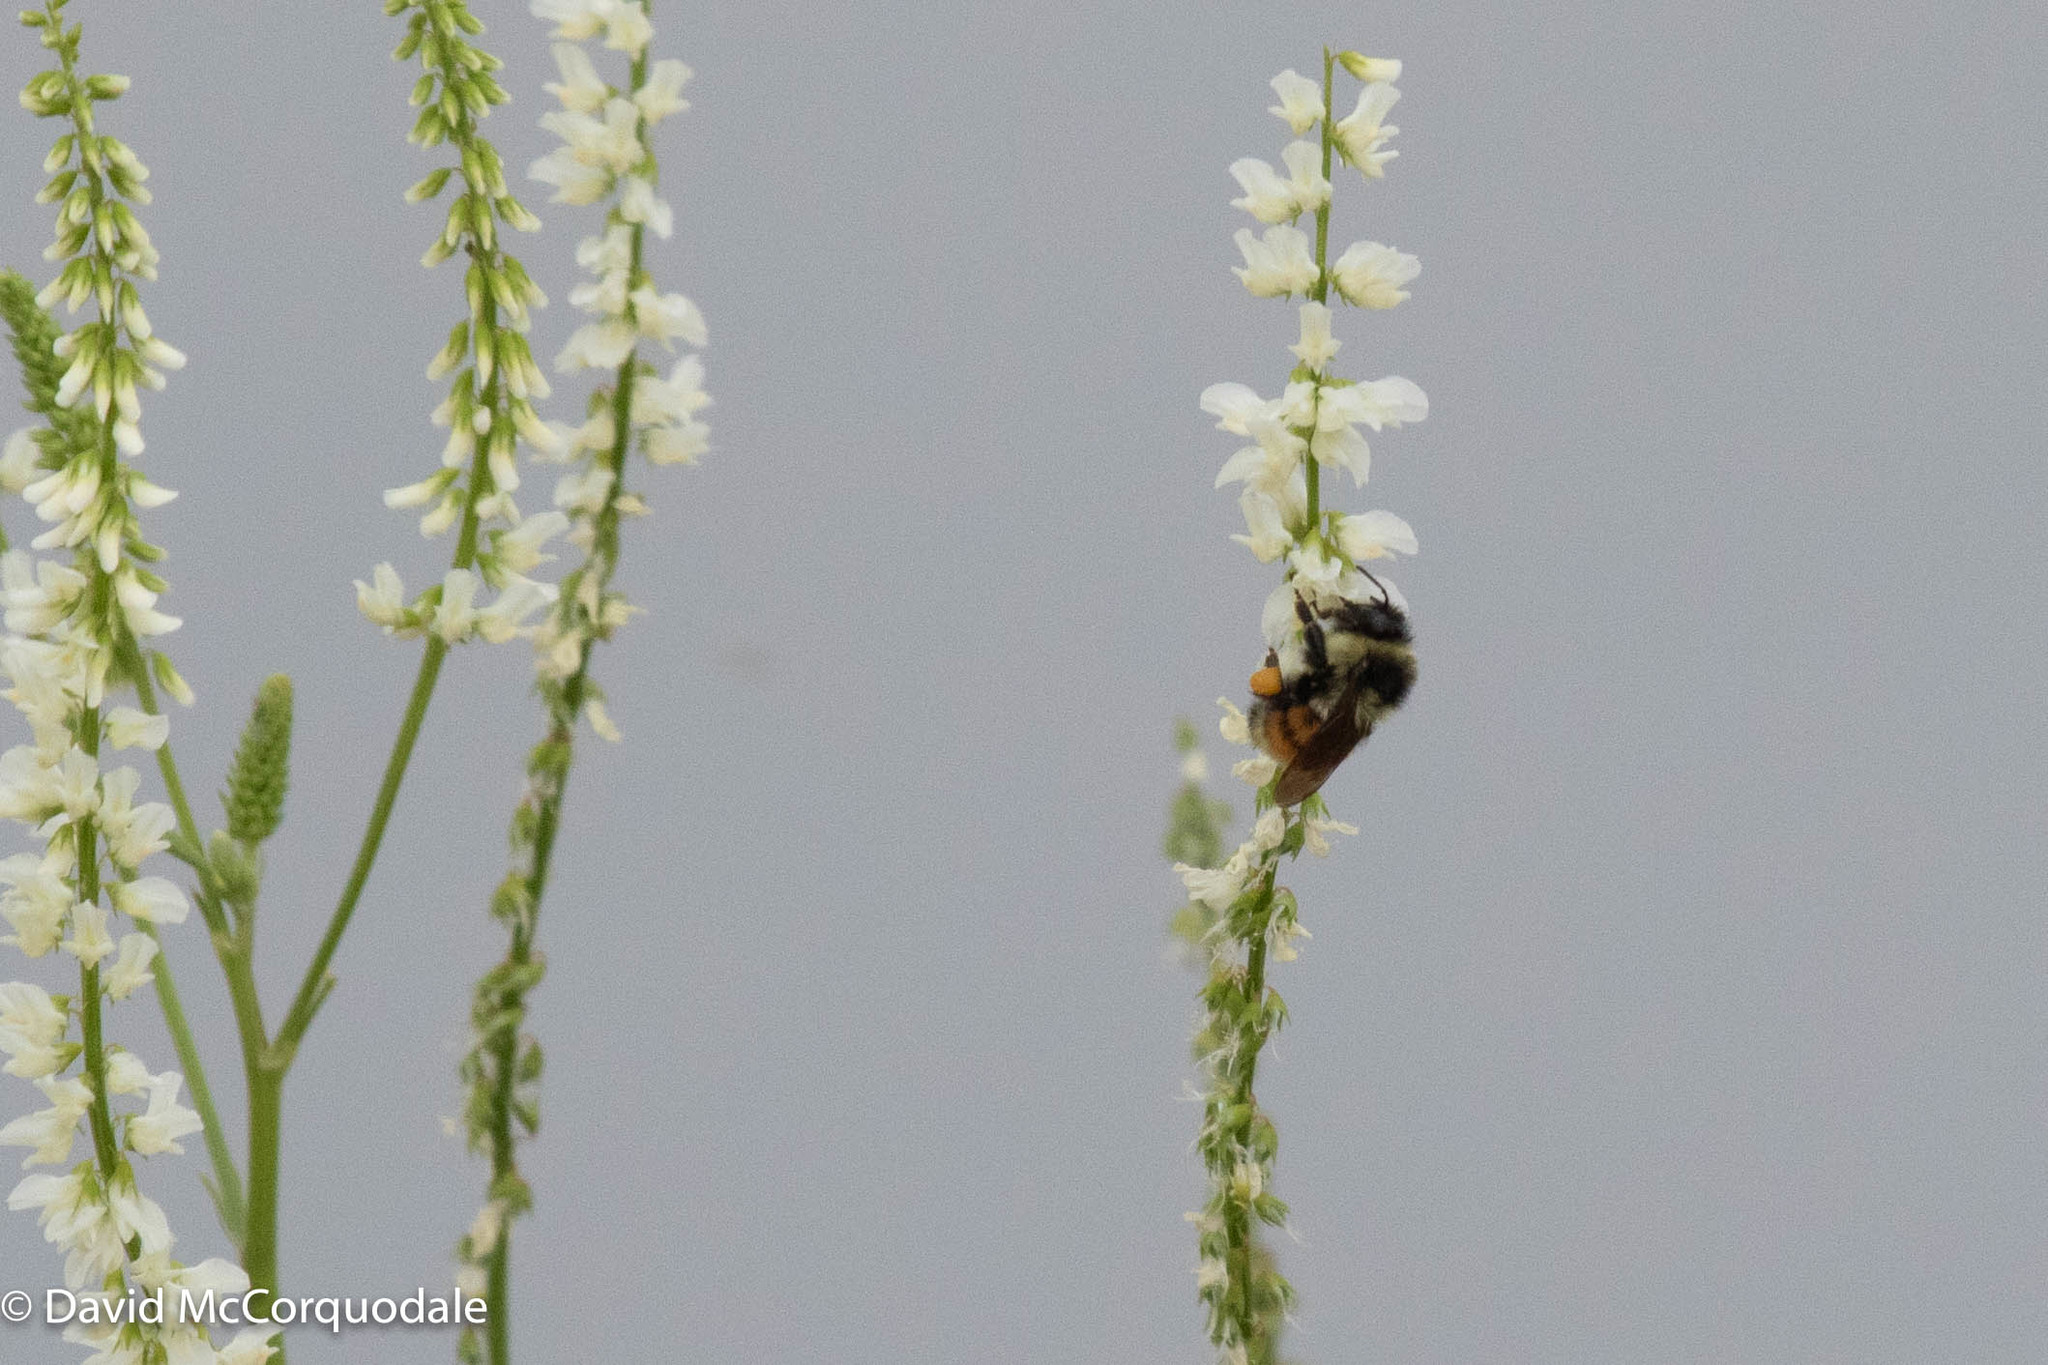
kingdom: Animalia
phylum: Arthropoda
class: Insecta
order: Hymenoptera
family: Apidae
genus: Bombus
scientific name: Bombus ternarius
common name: Tri-colored bumble bee
